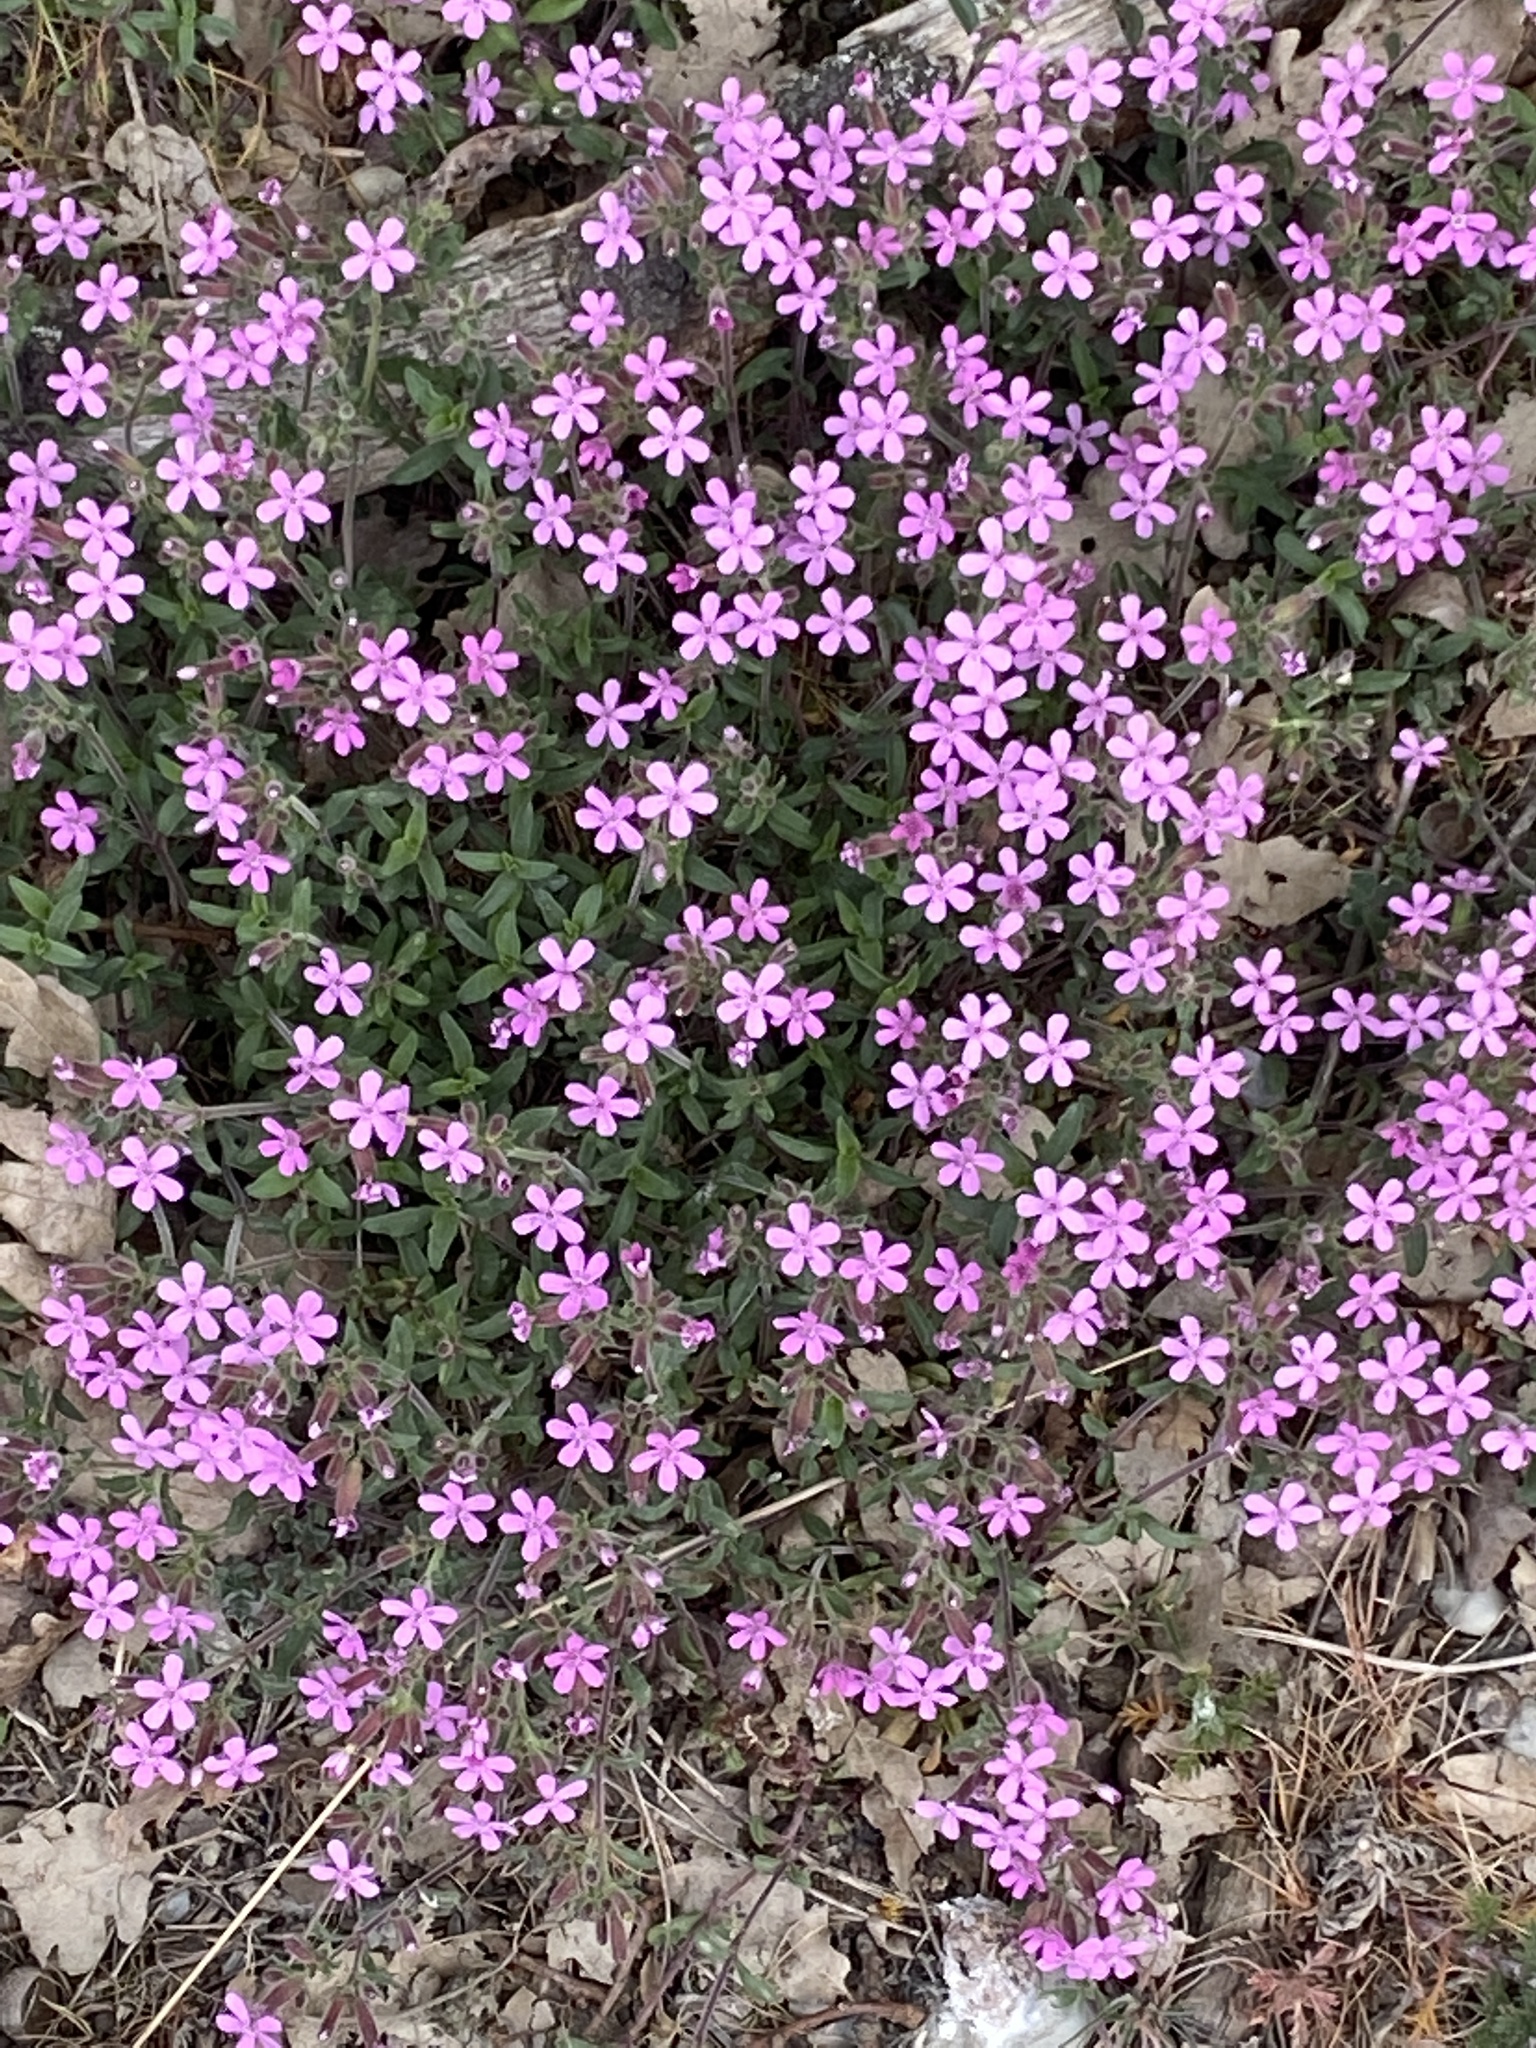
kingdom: Plantae
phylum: Tracheophyta
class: Magnoliopsida
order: Caryophyllales
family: Caryophyllaceae
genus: Saponaria
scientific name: Saponaria ocymoides
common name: Rock soapwort
